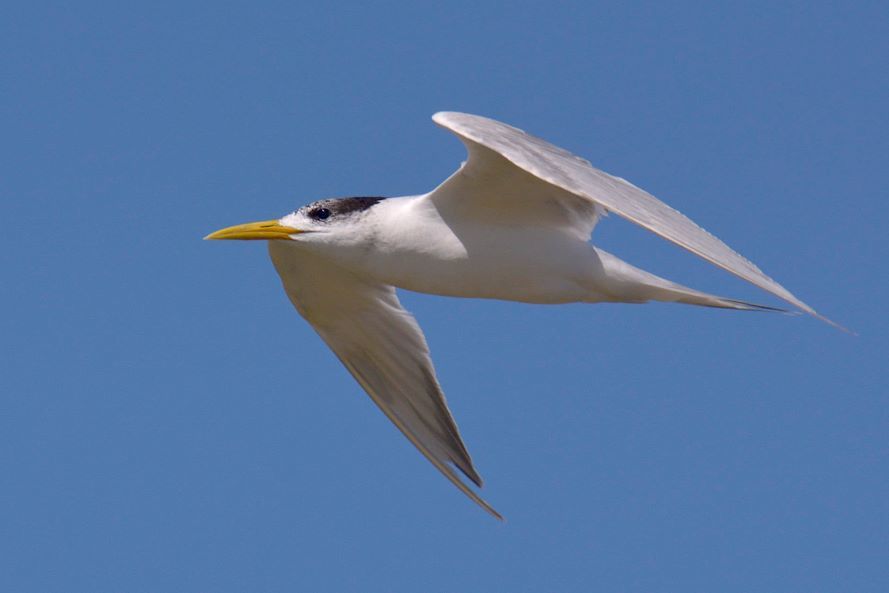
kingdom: Animalia
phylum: Chordata
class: Aves
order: Charadriiformes
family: Laridae
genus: Thalasseus
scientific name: Thalasseus bergii
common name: Greater crested tern
